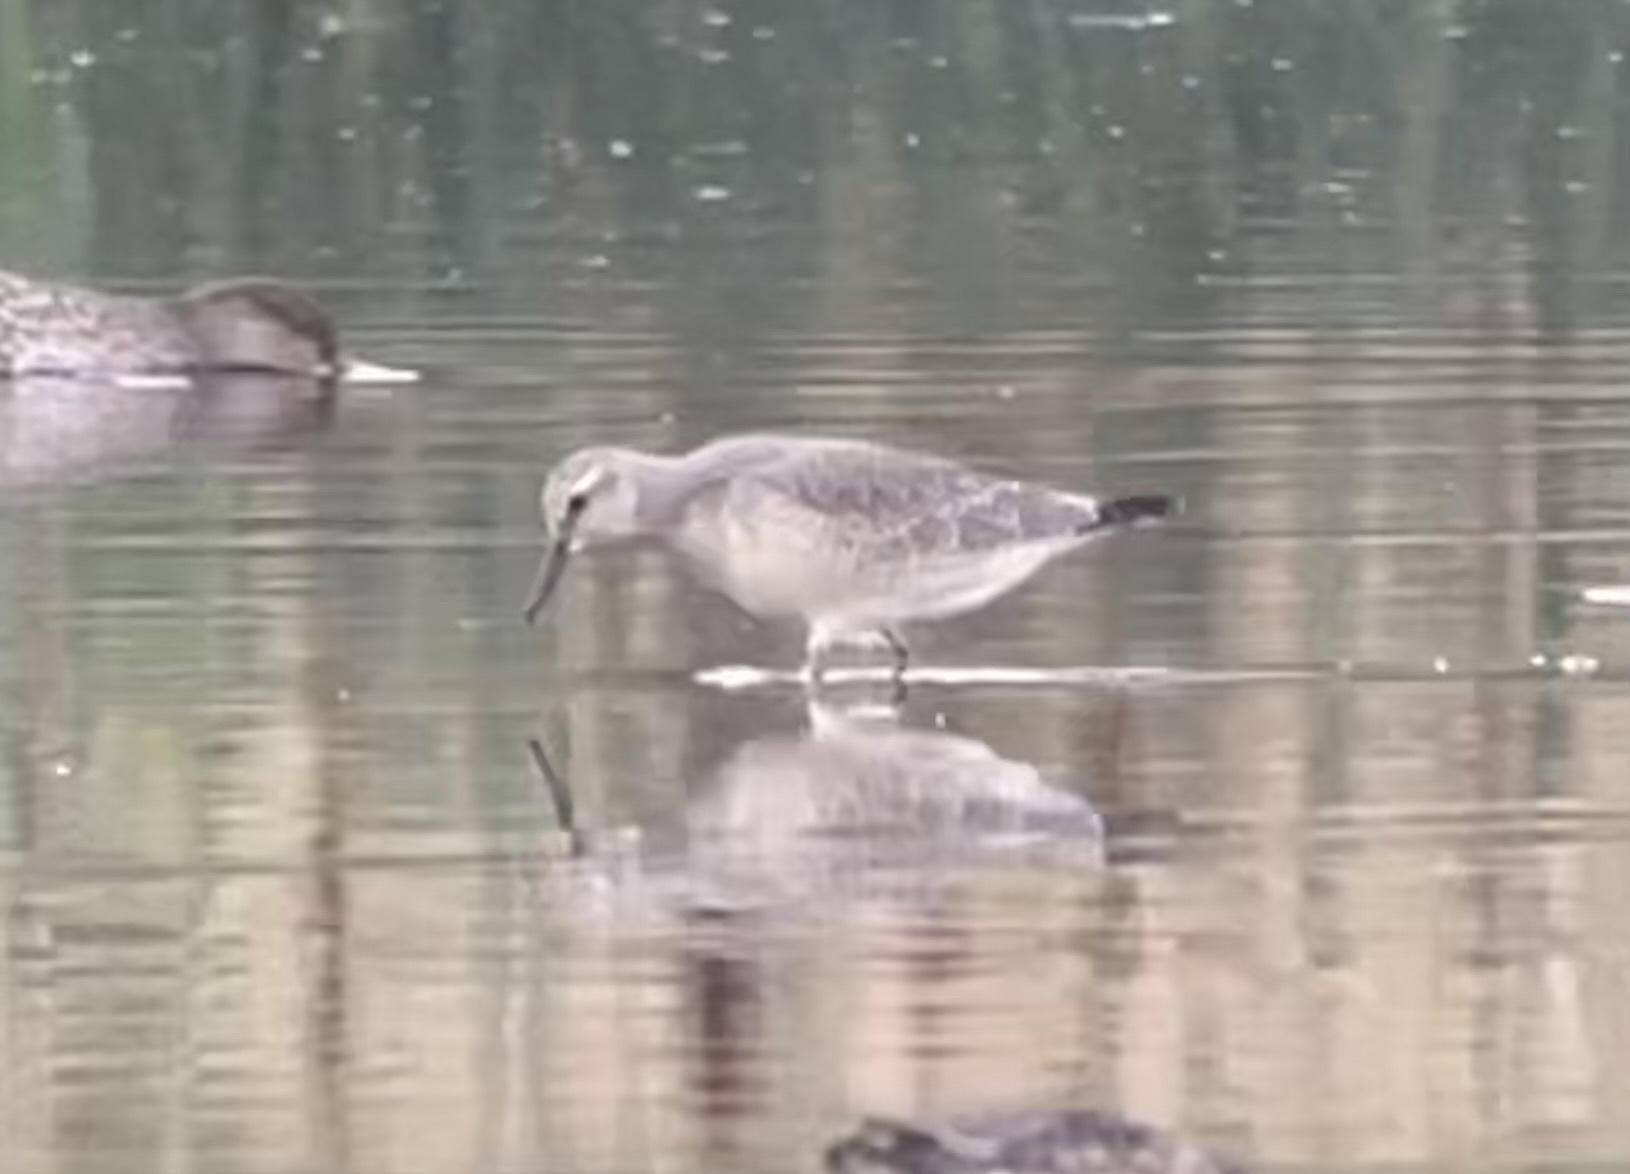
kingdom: Animalia
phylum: Chordata
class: Aves
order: Charadriiformes
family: Scolopacidae
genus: Calidris
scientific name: Calidris canutus
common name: Red knot
